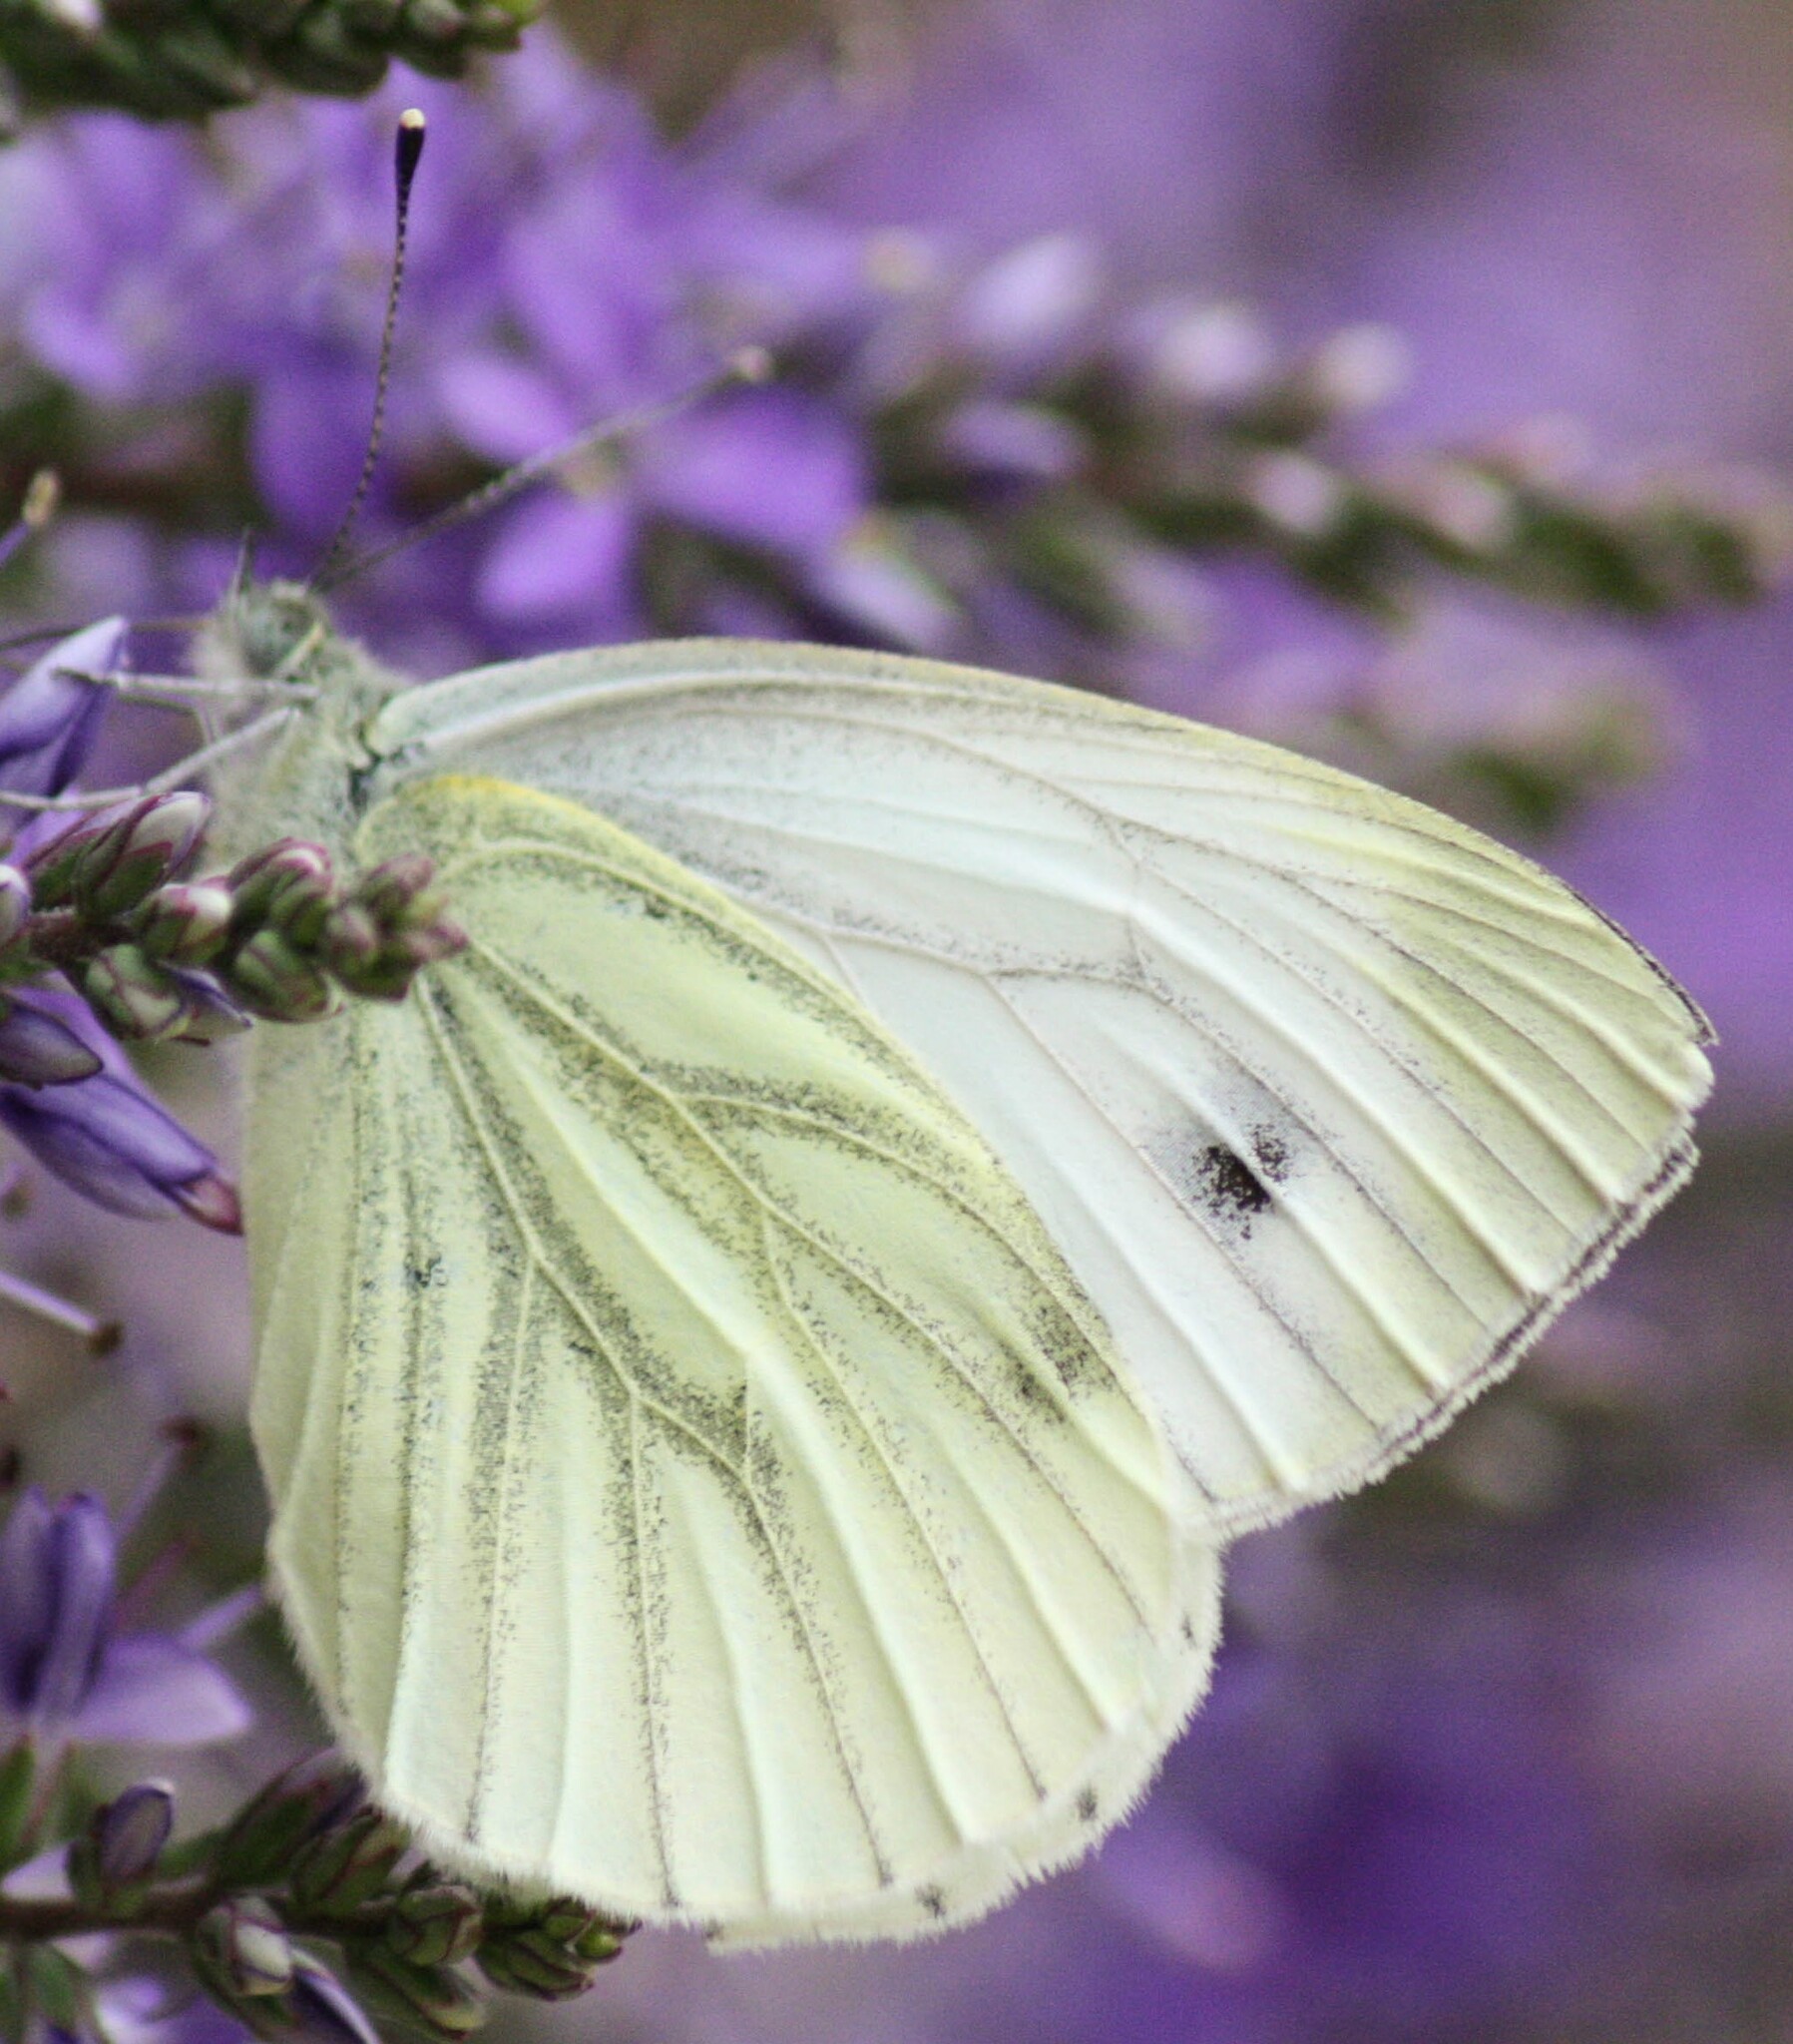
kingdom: Animalia
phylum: Arthropoda
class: Insecta
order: Lepidoptera
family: Pieridae
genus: Pieris
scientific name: Pieris napi
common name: Green-veined white
